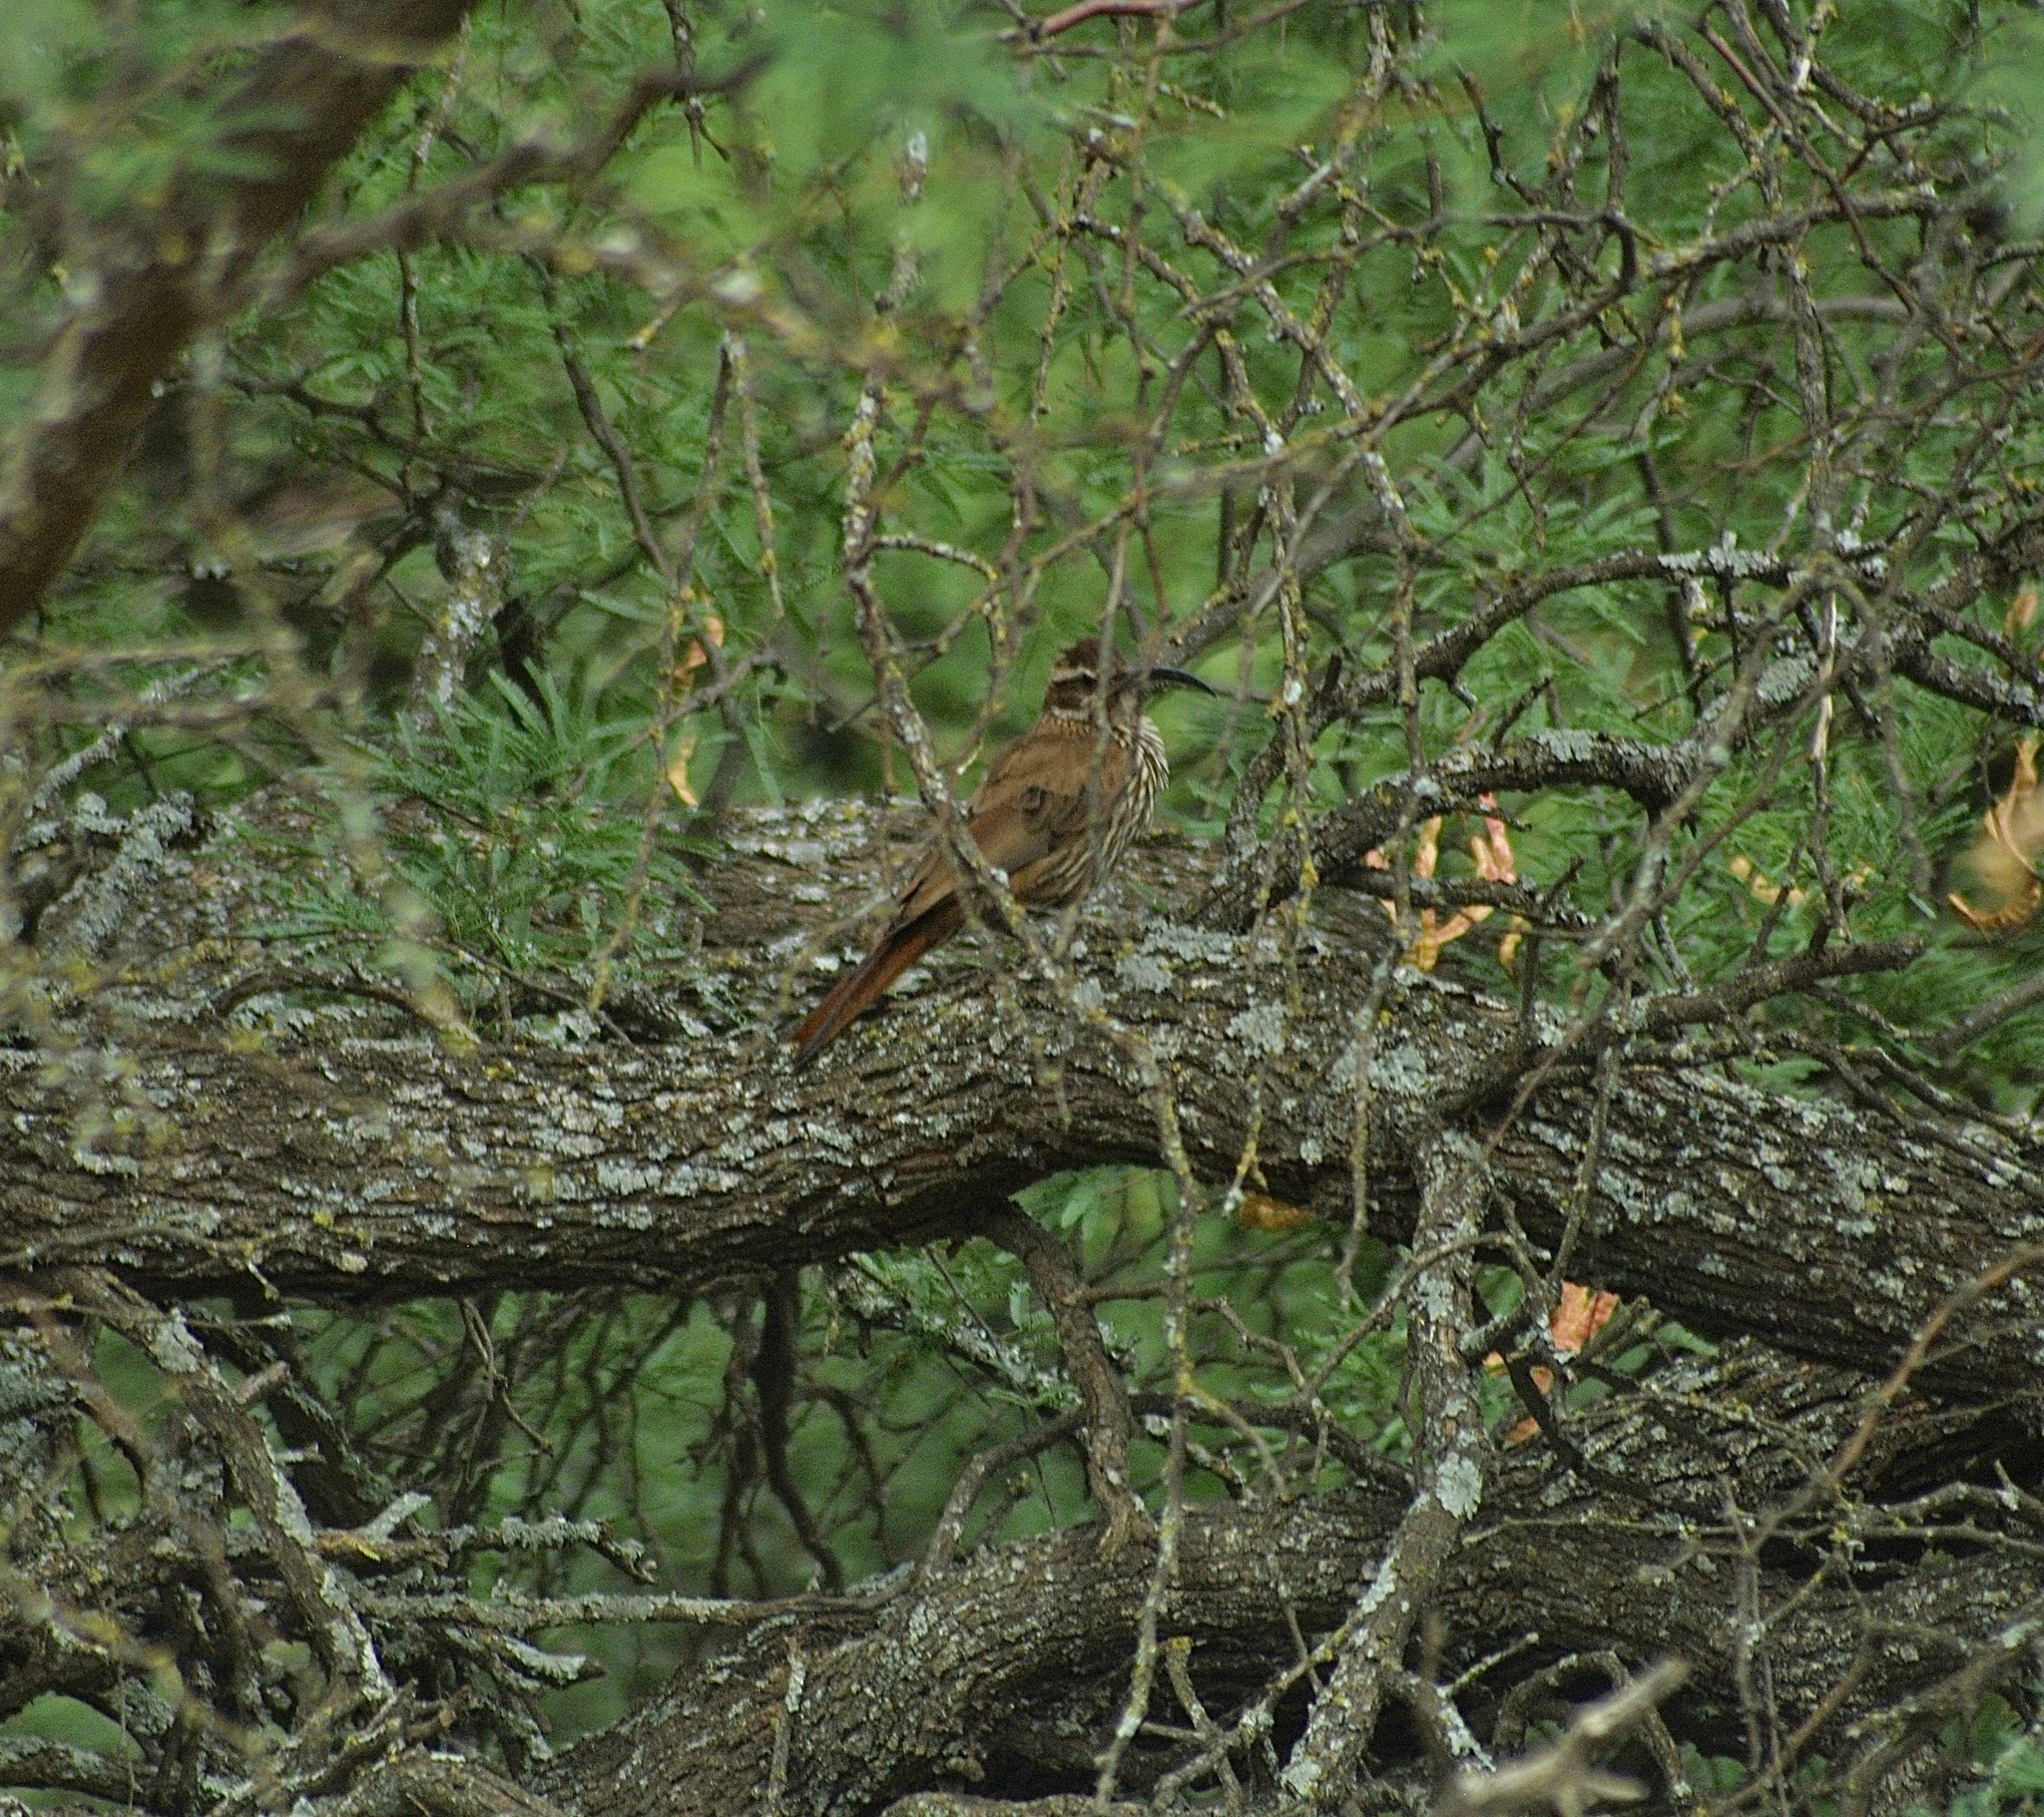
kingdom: Animalia
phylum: Chordata
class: Aves
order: Passeriformes
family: Furnariidae
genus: Drymornis
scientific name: Drymornis bridgesii
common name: Scimitar-billed woodcreeper
